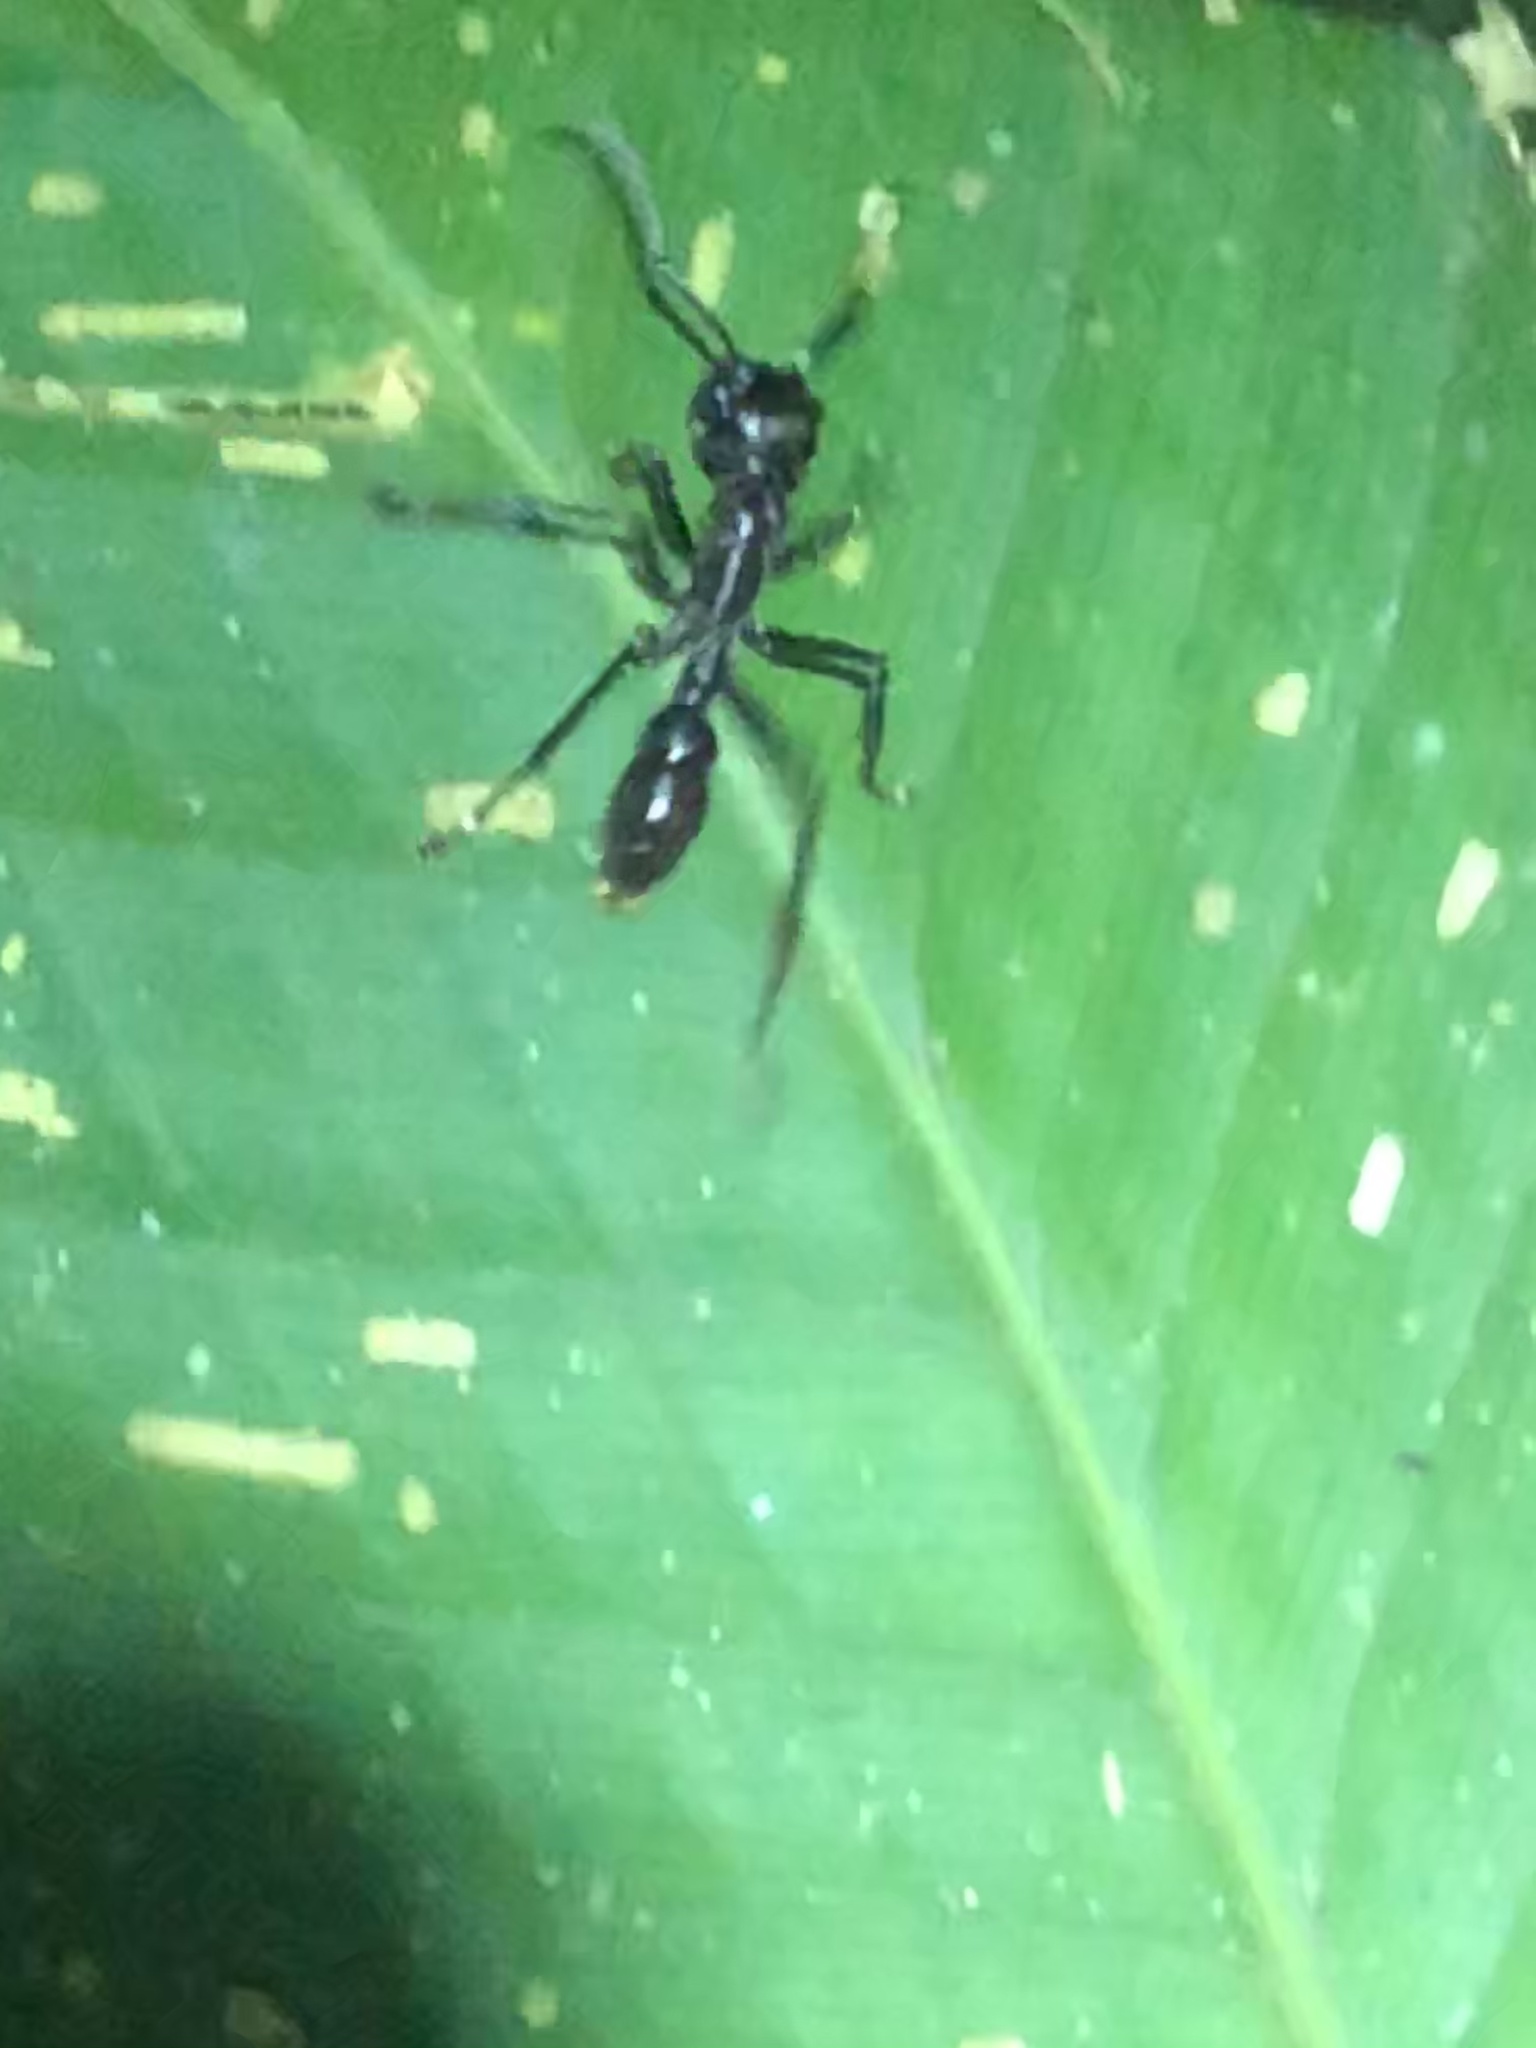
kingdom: Animalia
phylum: Arthropoda
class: Insecta
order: Hymenoptera
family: Formicidae
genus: Paraponera
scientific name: Paraponera clavata
